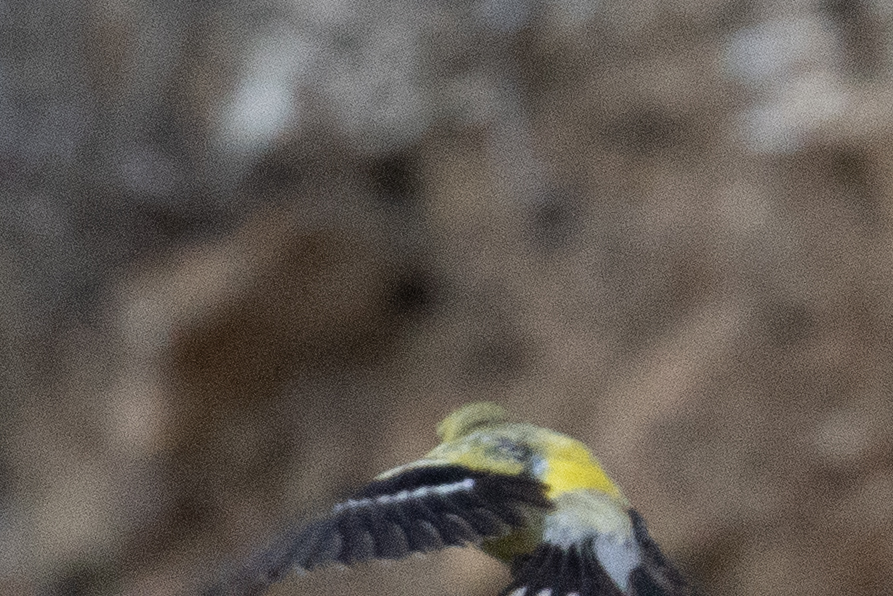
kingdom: Animalia
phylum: Chordata
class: Aves
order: Passeriformes
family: Fringillidae
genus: Spinus
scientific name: Spinus tristis
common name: American goldfinch
